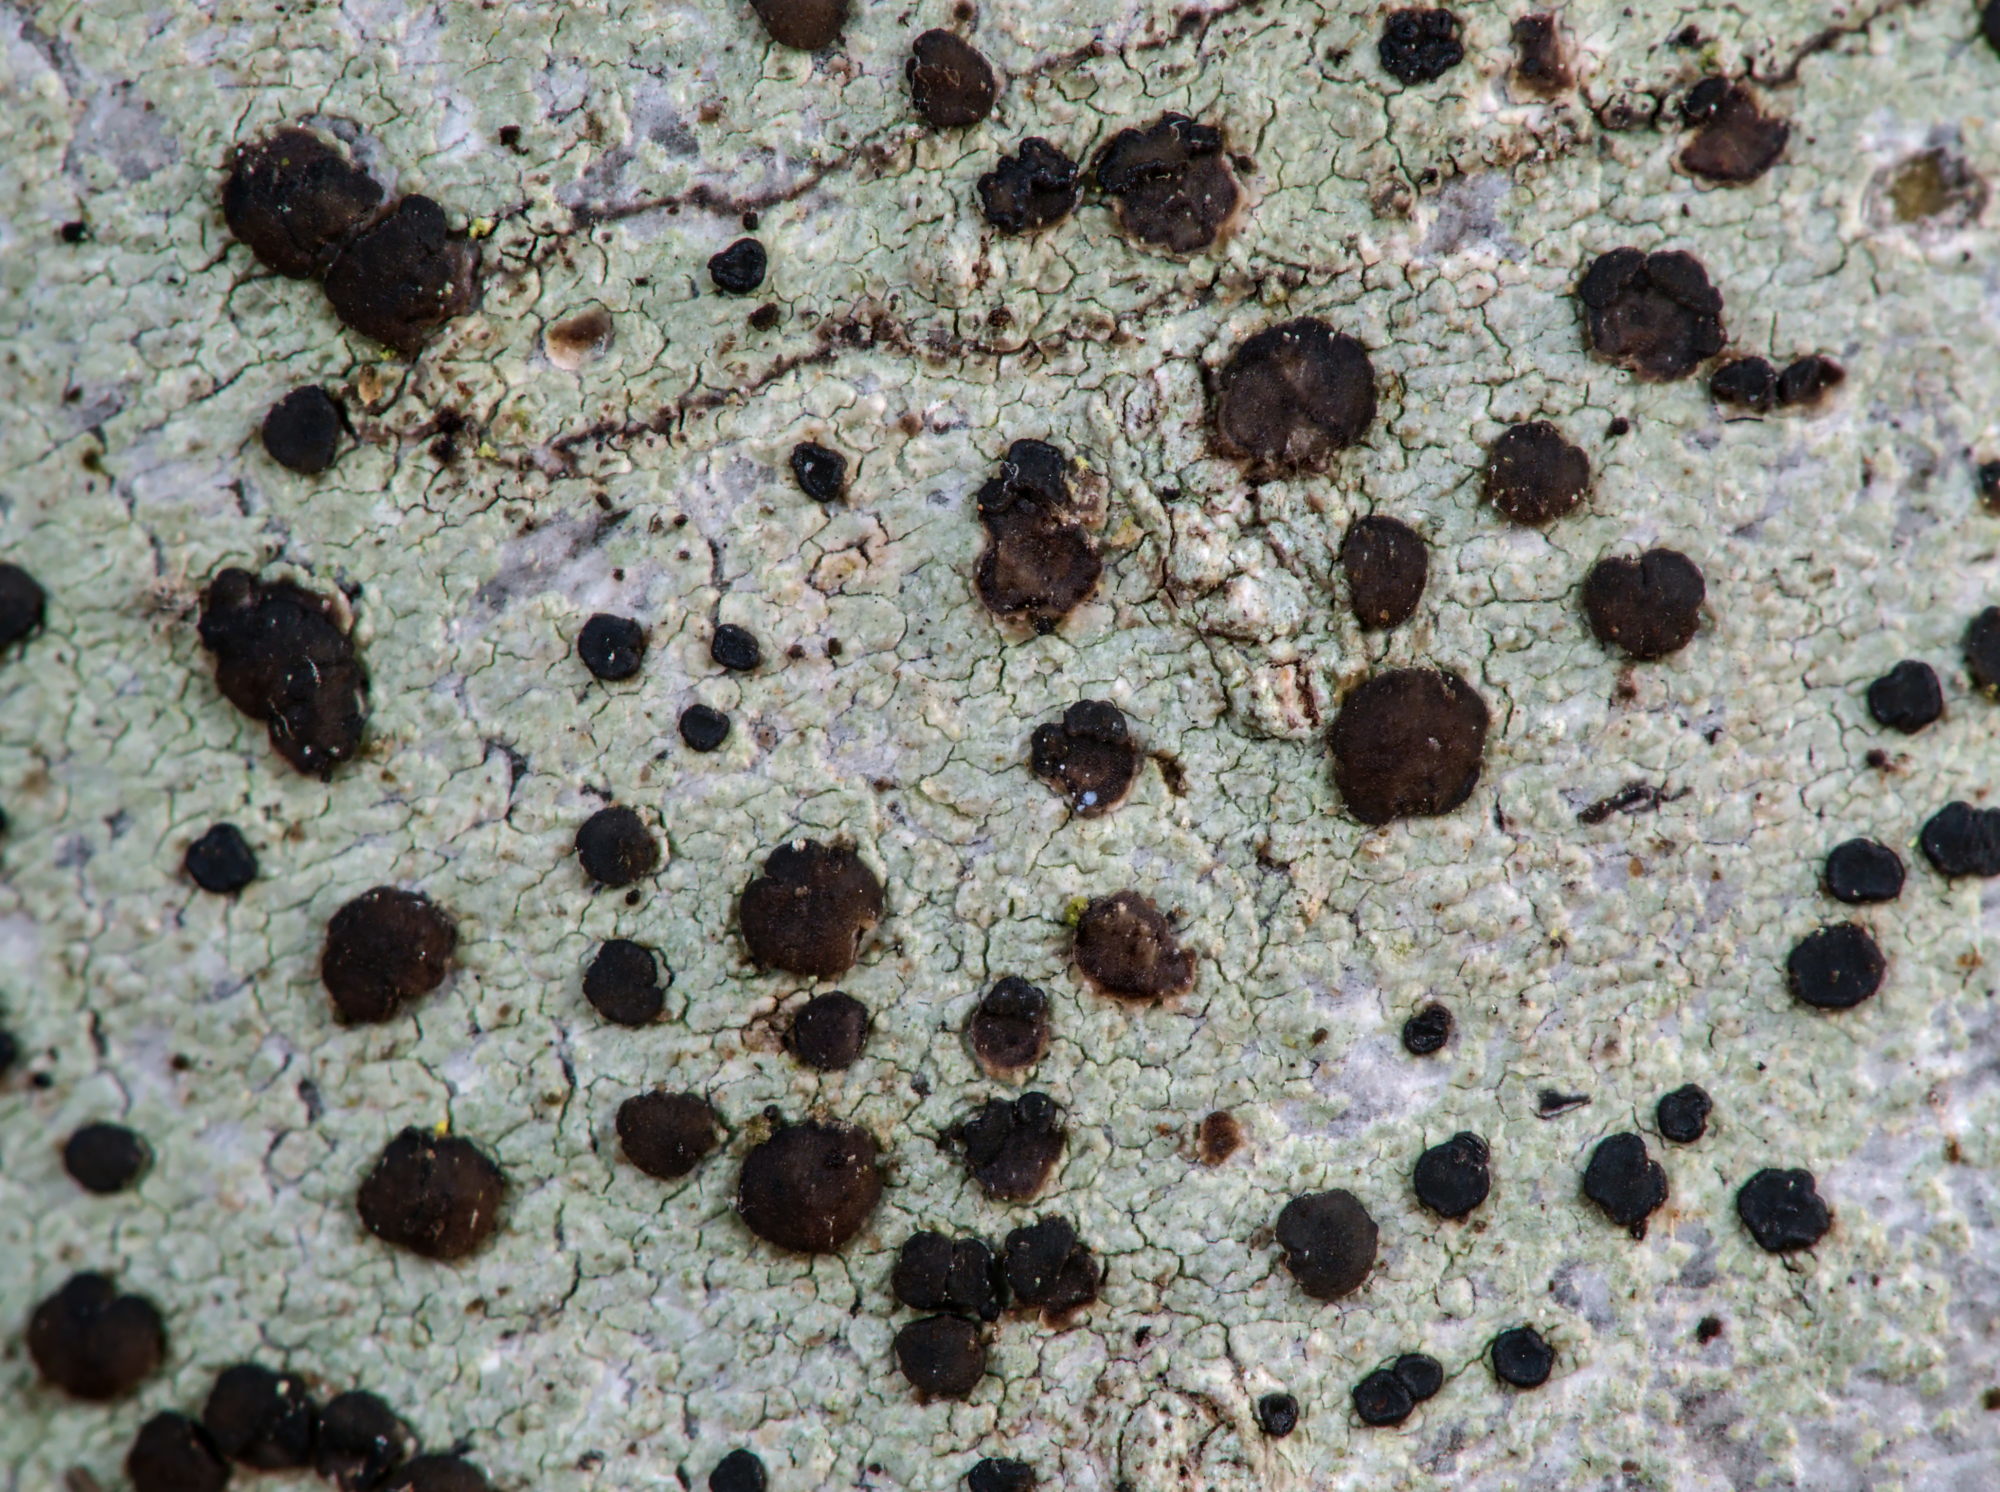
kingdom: Fungi
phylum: Ascomycota
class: Lecanoromycetes
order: Lecanorales
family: Lecanoraceae
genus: Lecidella
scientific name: Lecidella elaeochroma
